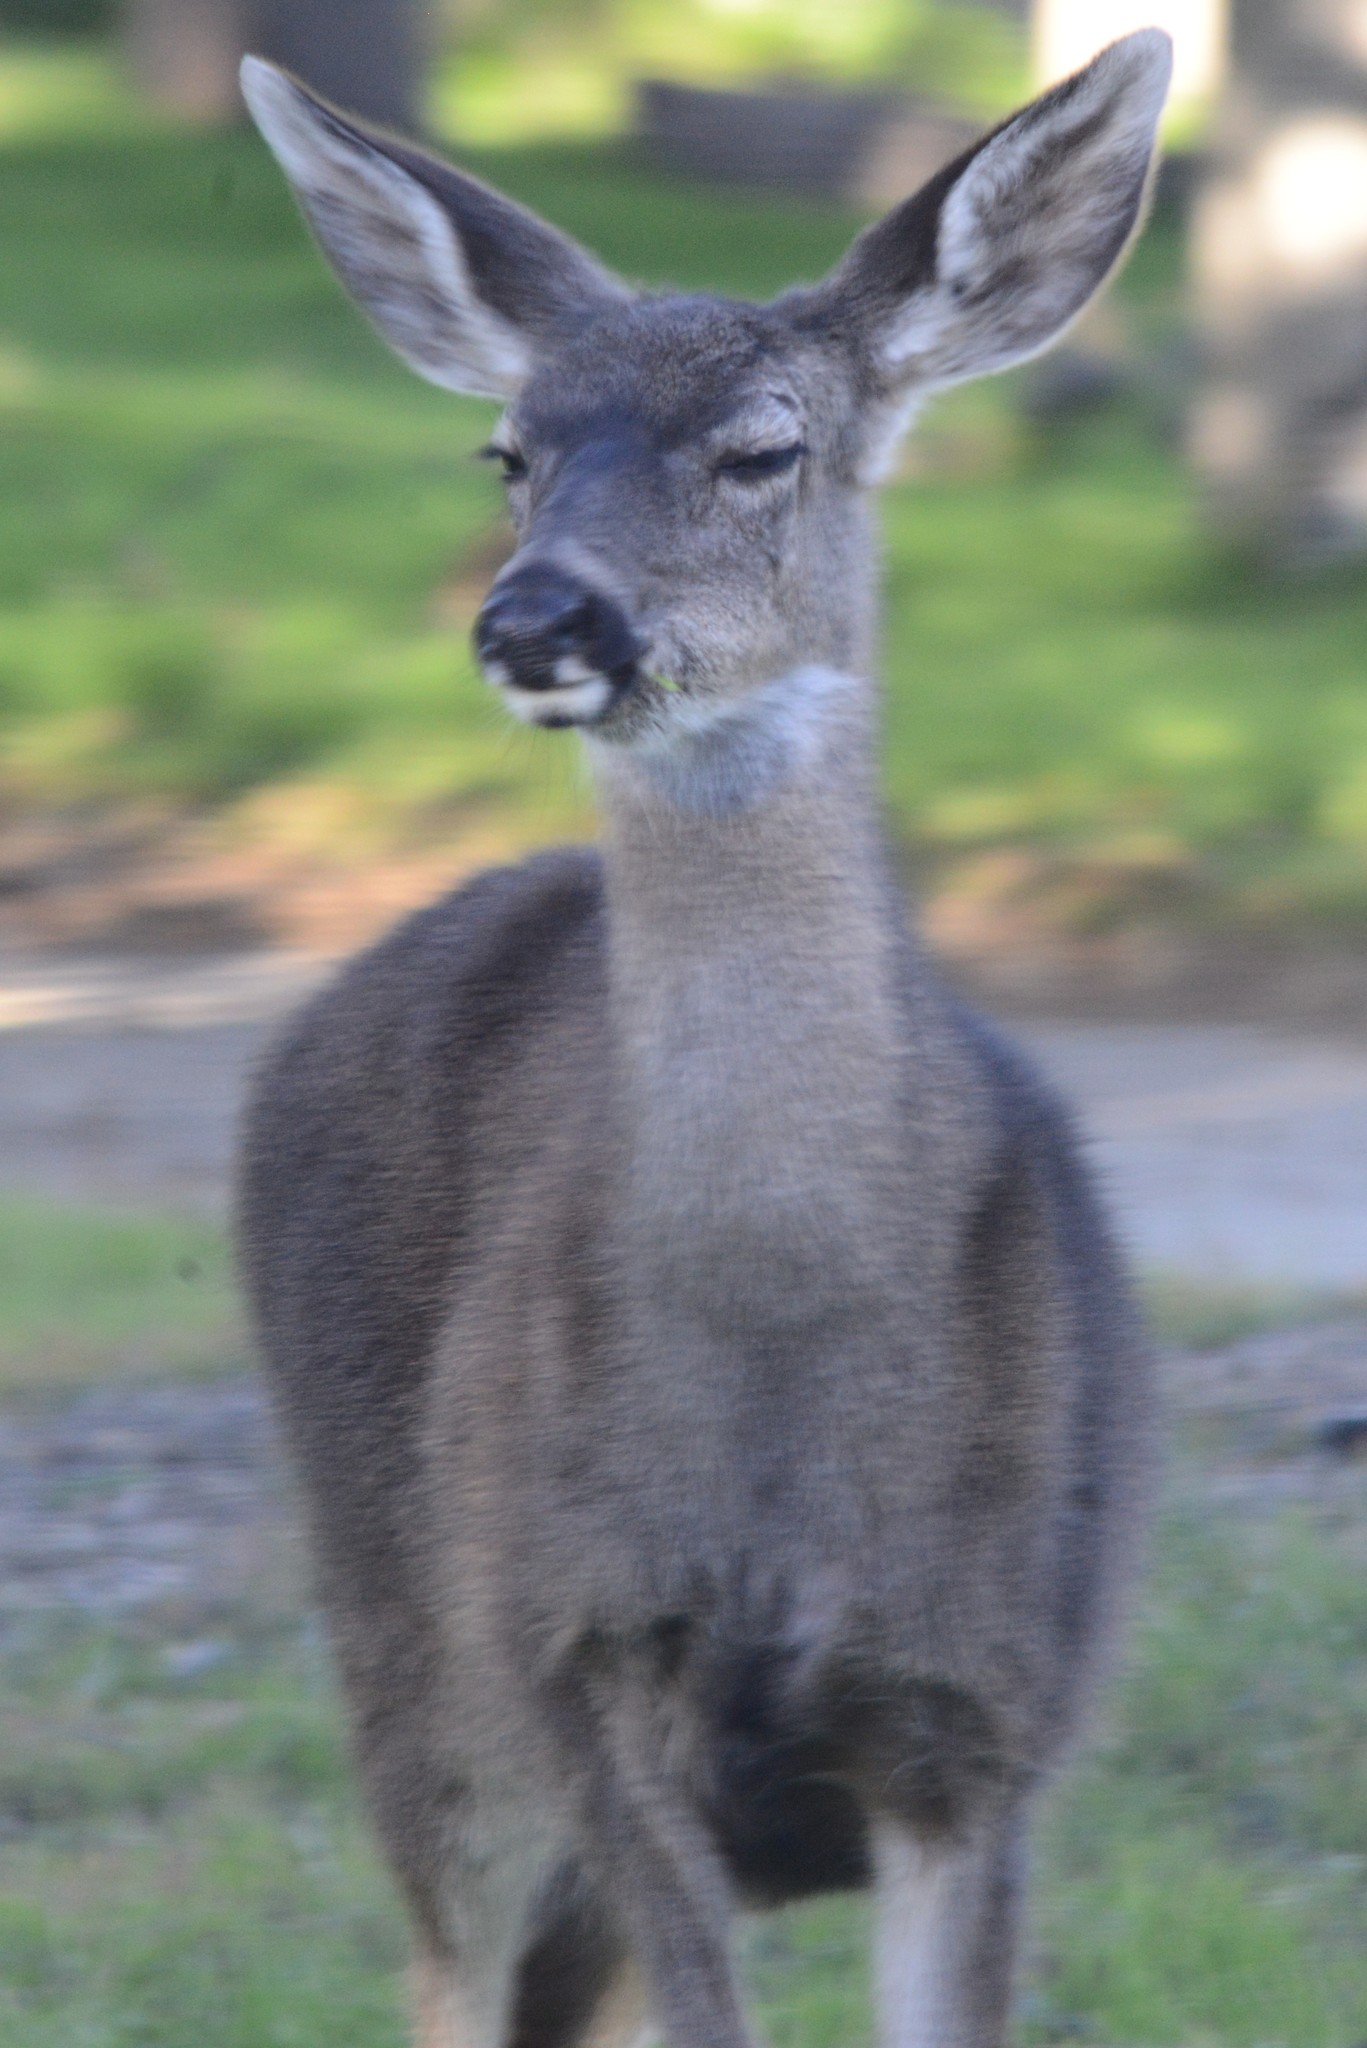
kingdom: Animalia
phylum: Chordata
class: Mammalia
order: Artiodactyla
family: Cervidae
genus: Odocoileus
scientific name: Odocoileus hemionus
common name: Mule deer
